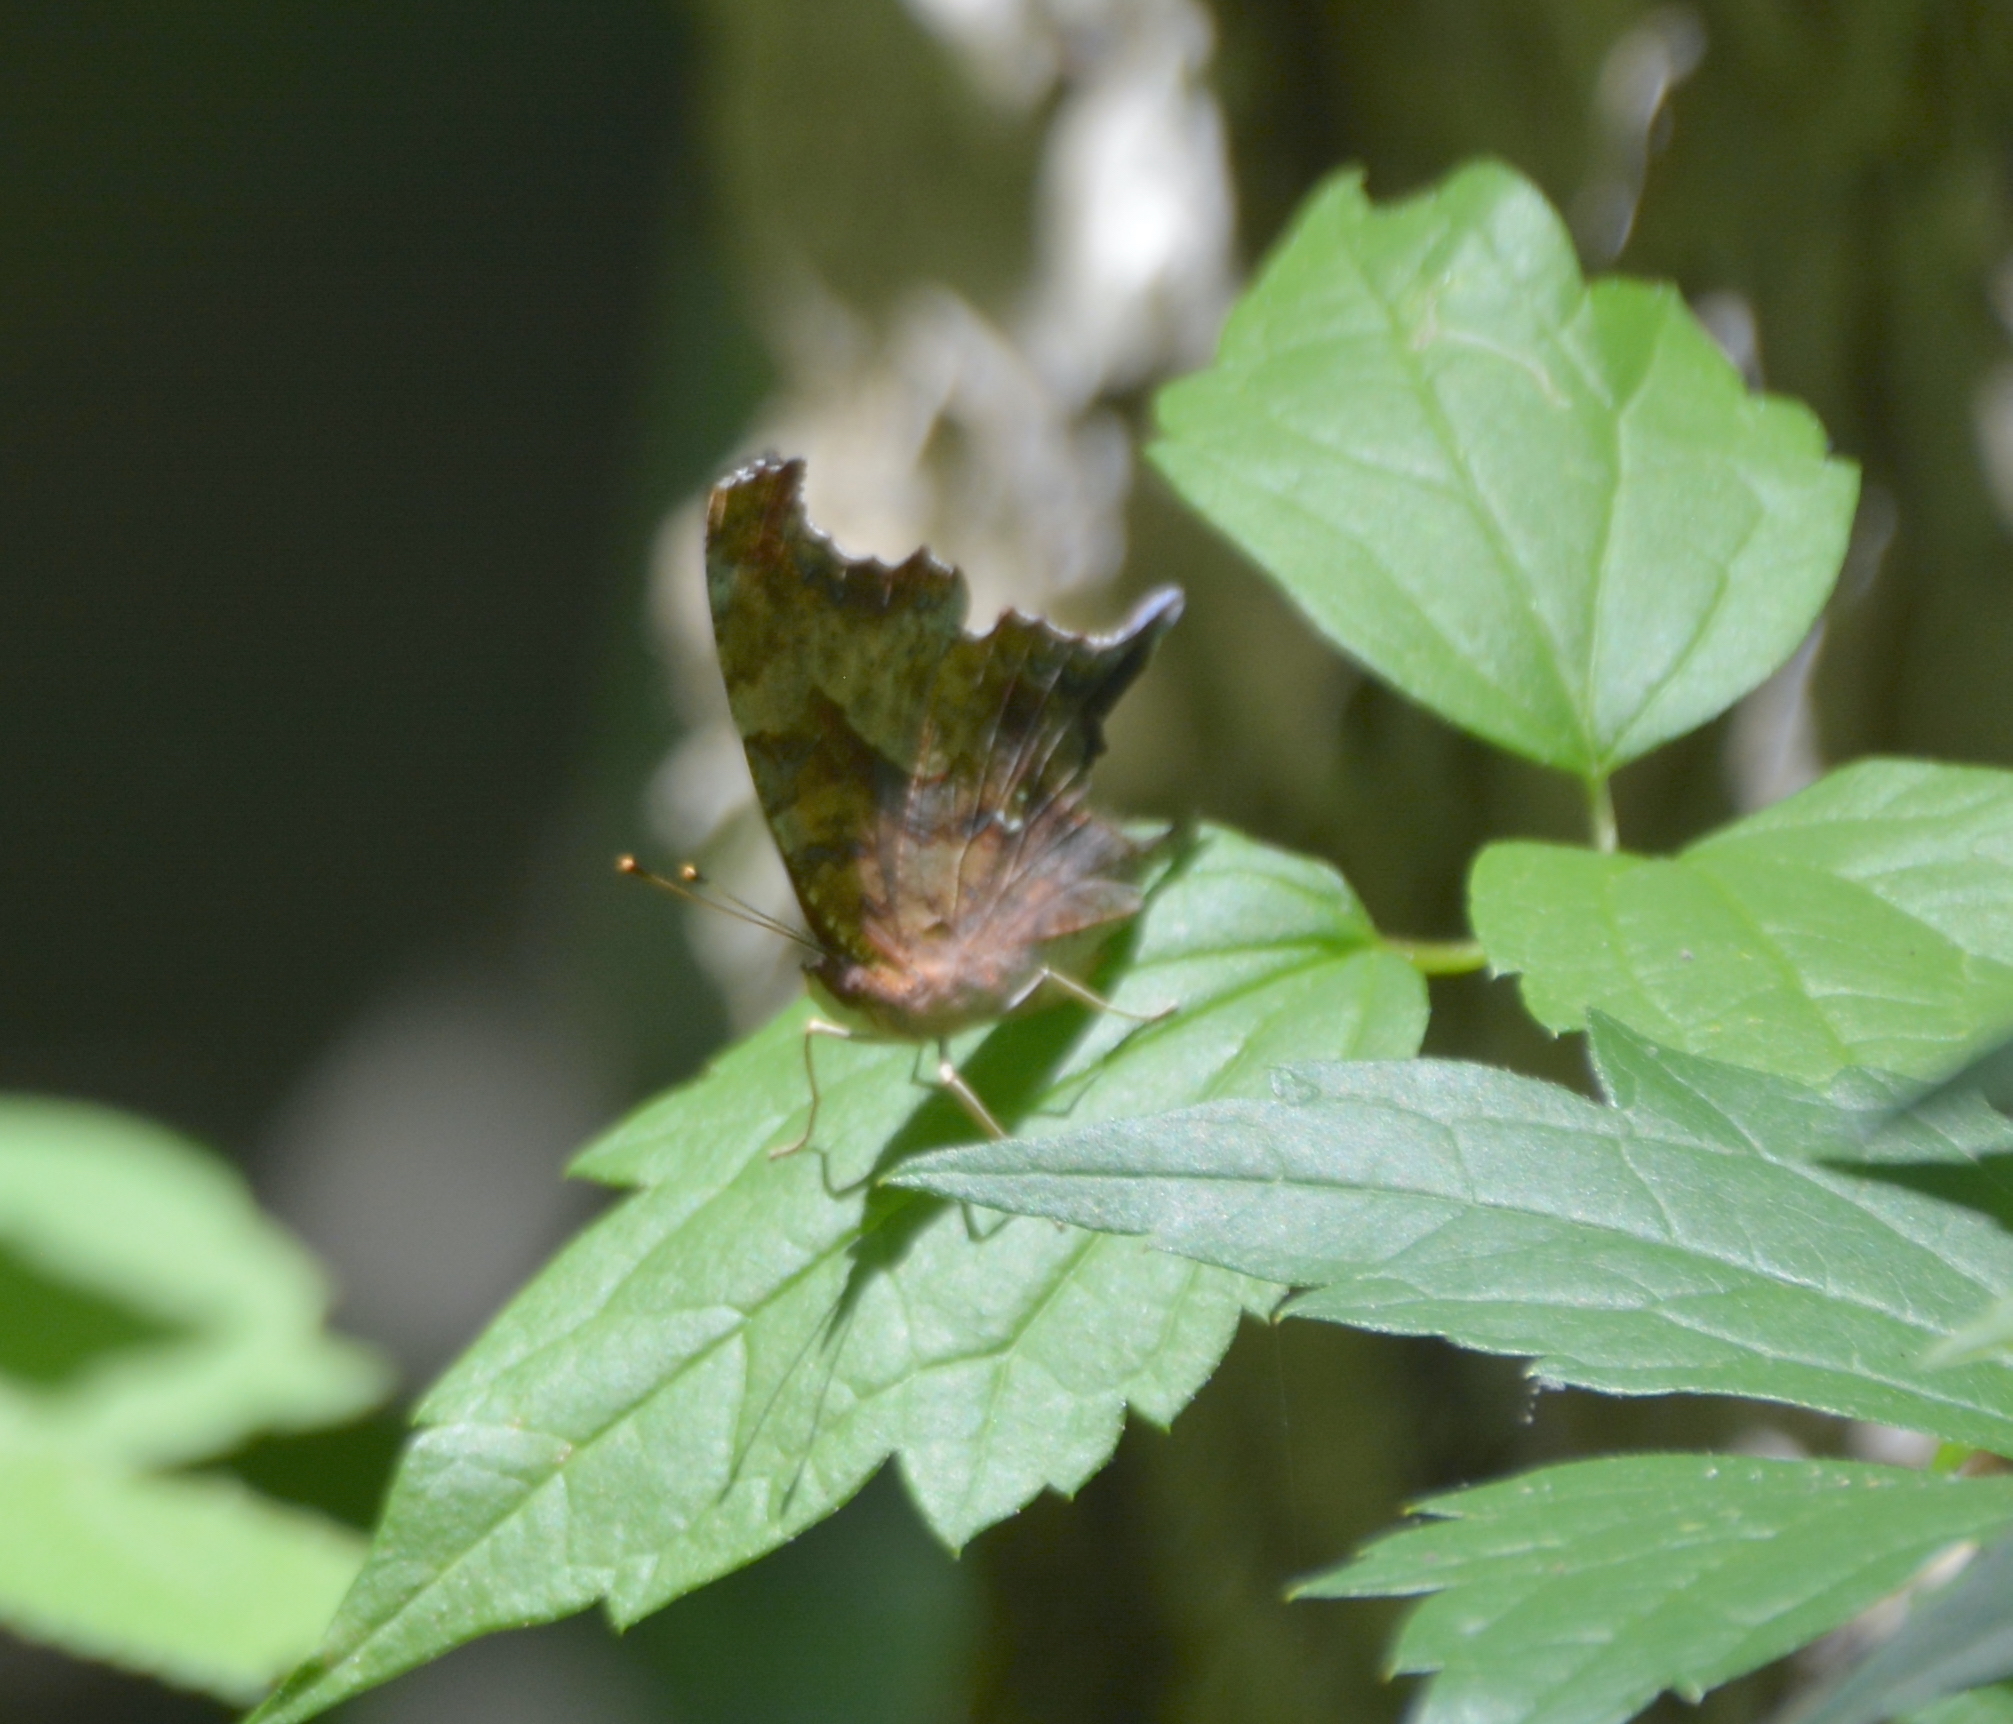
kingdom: Animalia
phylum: Arthropoda
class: Insecta
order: Lepidoptera
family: Nymphalidae
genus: Polygonia
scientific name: Polygonia interrogationis
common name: Question mark
